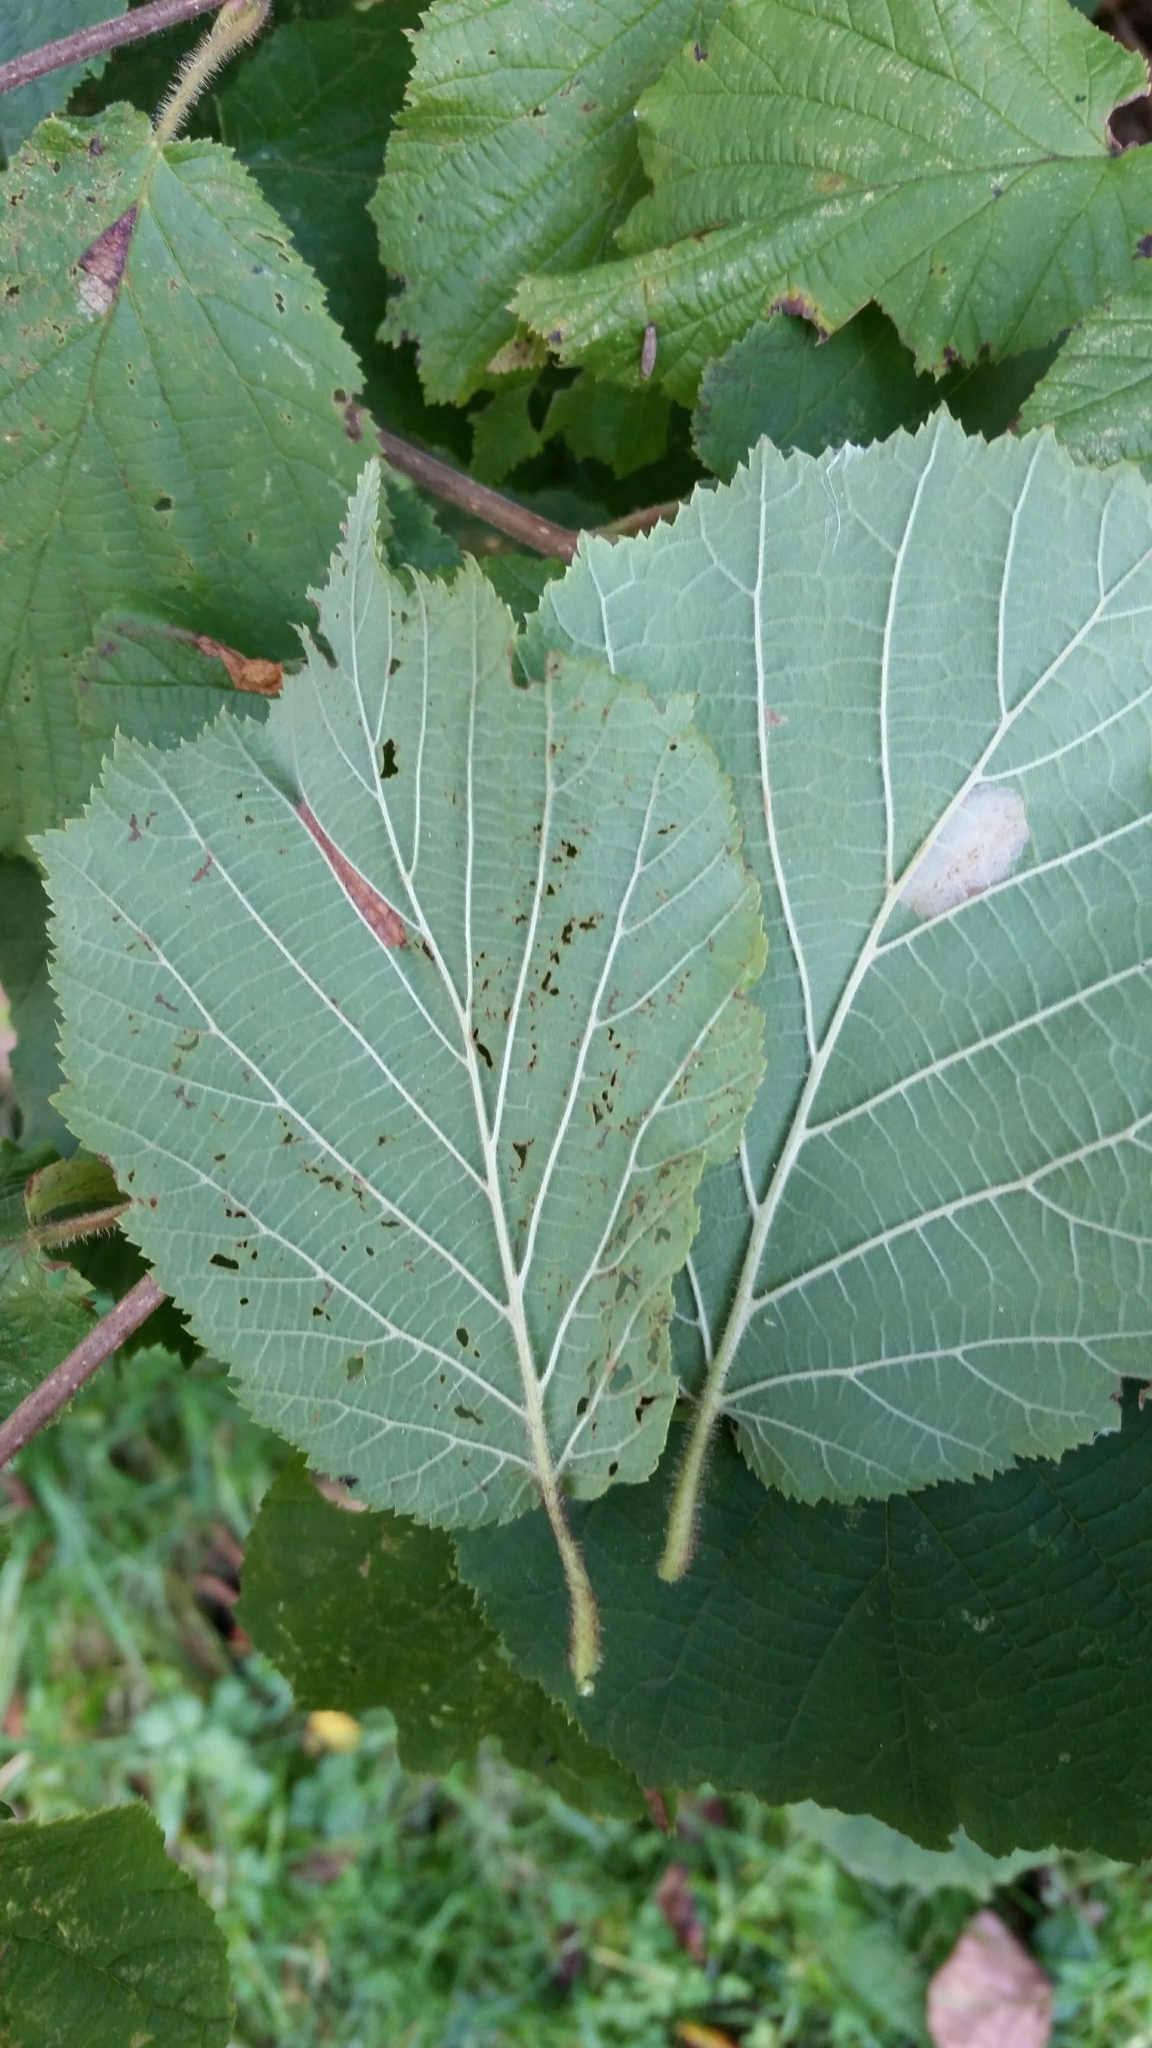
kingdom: Animalia
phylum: Arthropoda
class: Insecta
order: Lepidoptera
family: Gracillariidae
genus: Phyllonorycter
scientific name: Phyllonorycter nicellii
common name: Red hazel midget
